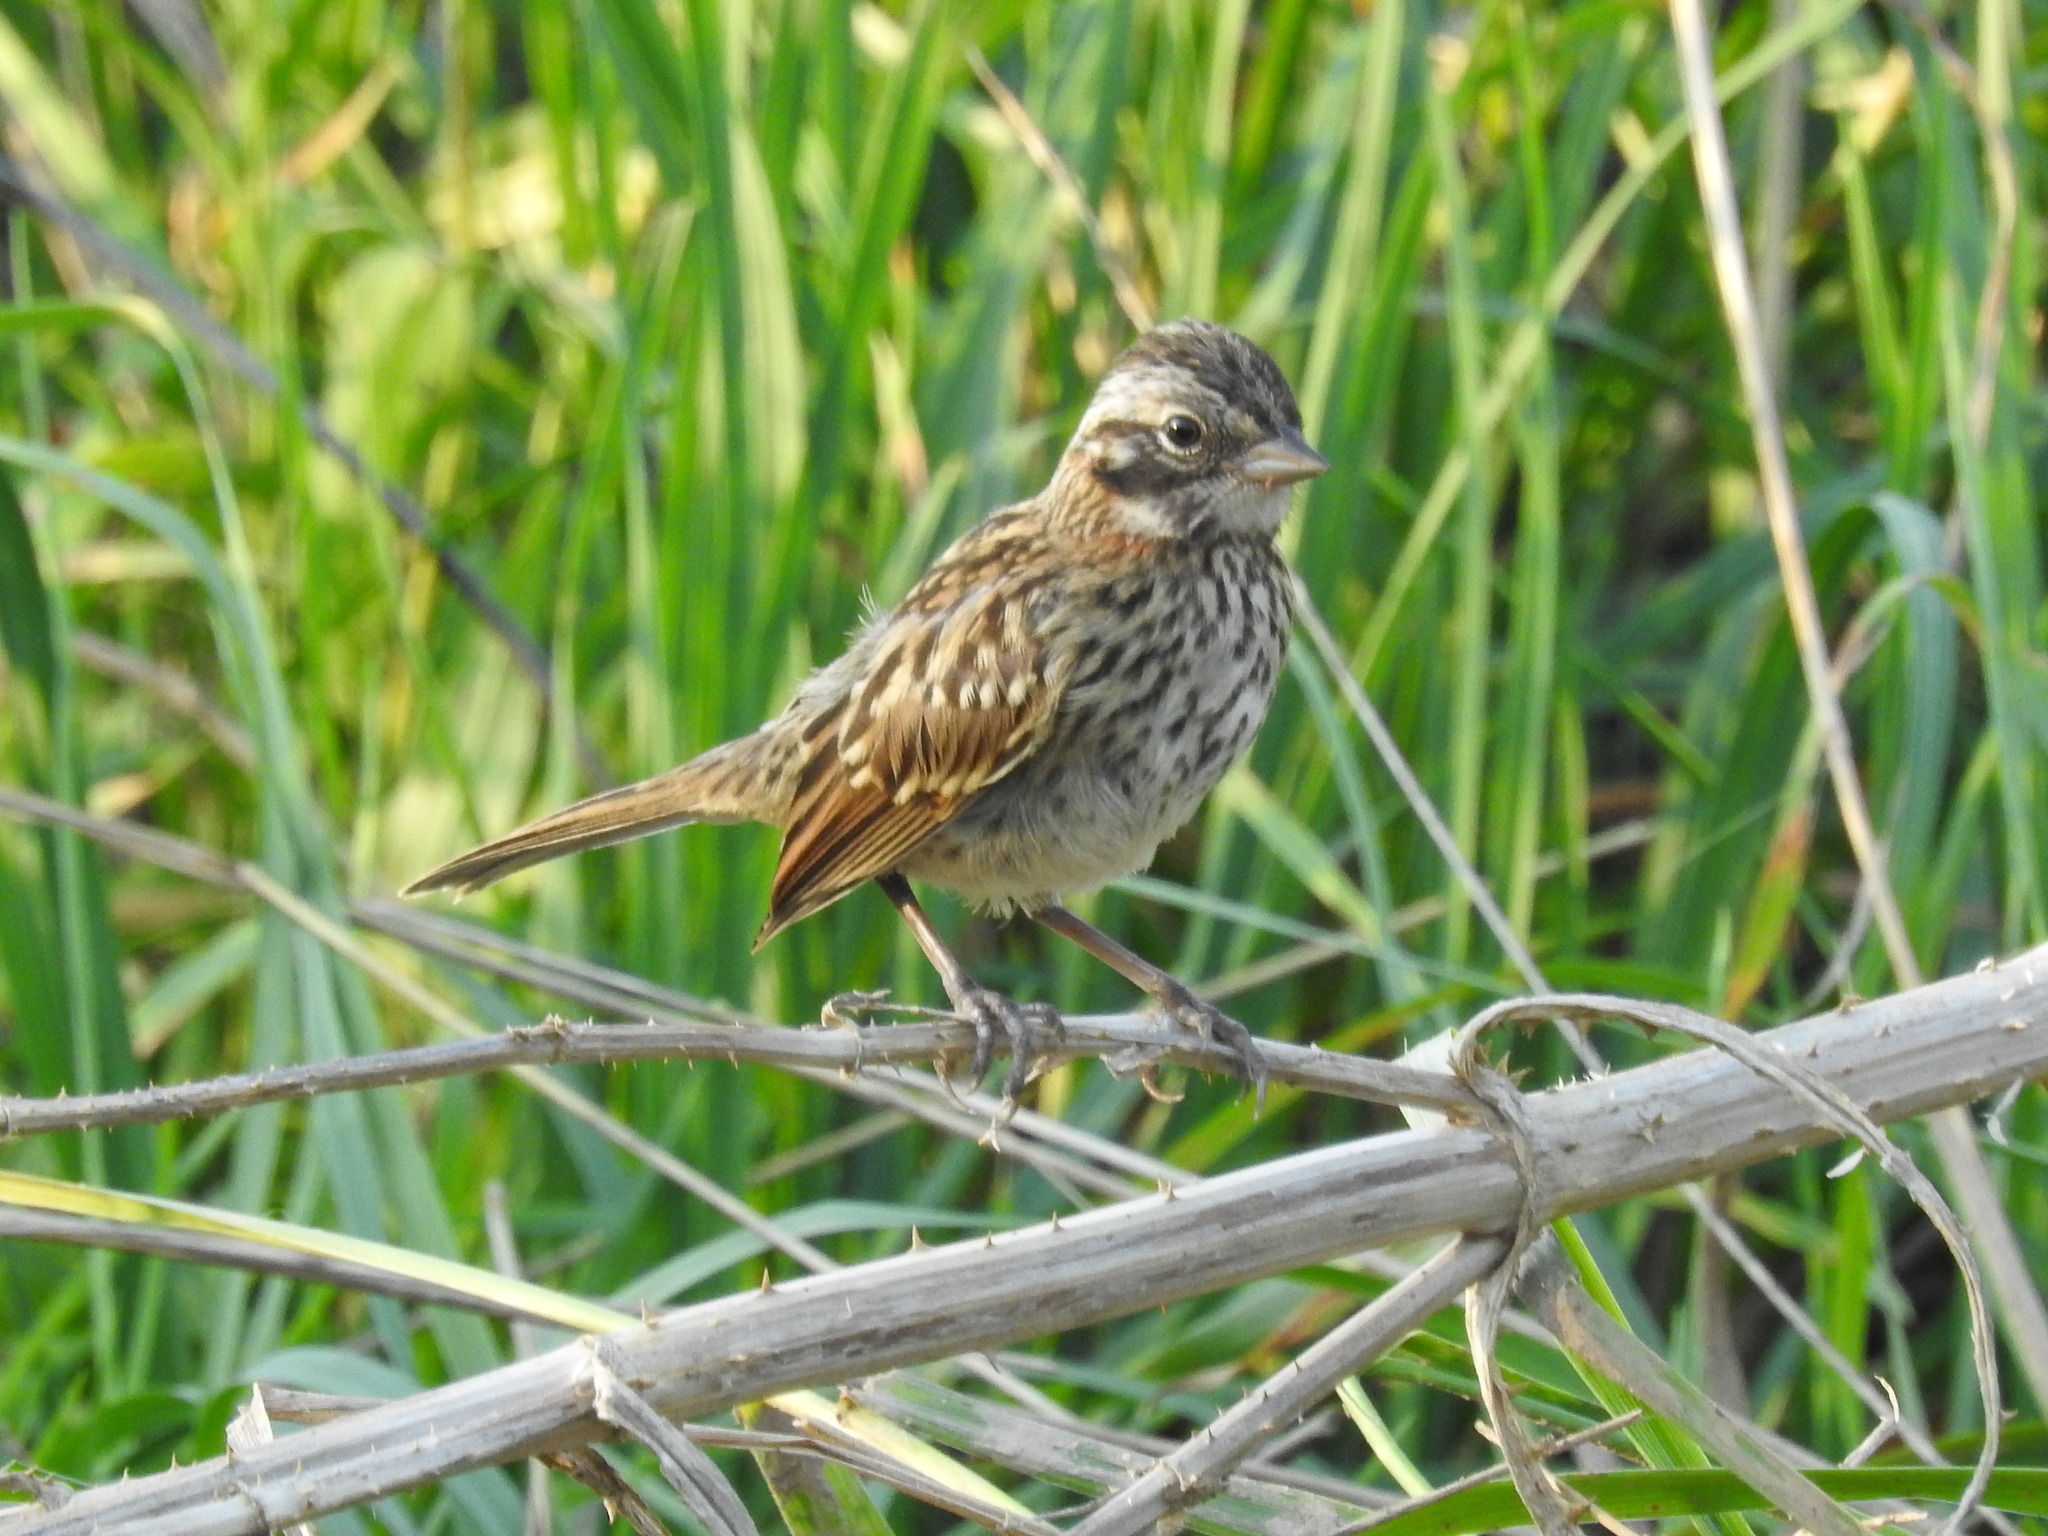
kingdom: Animalia
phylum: Chordata
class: Aves
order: Passeriformes
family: Passerellidae
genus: Zonotrichia
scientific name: Zonotrichia capensis
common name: Rufous-collared sparrow
